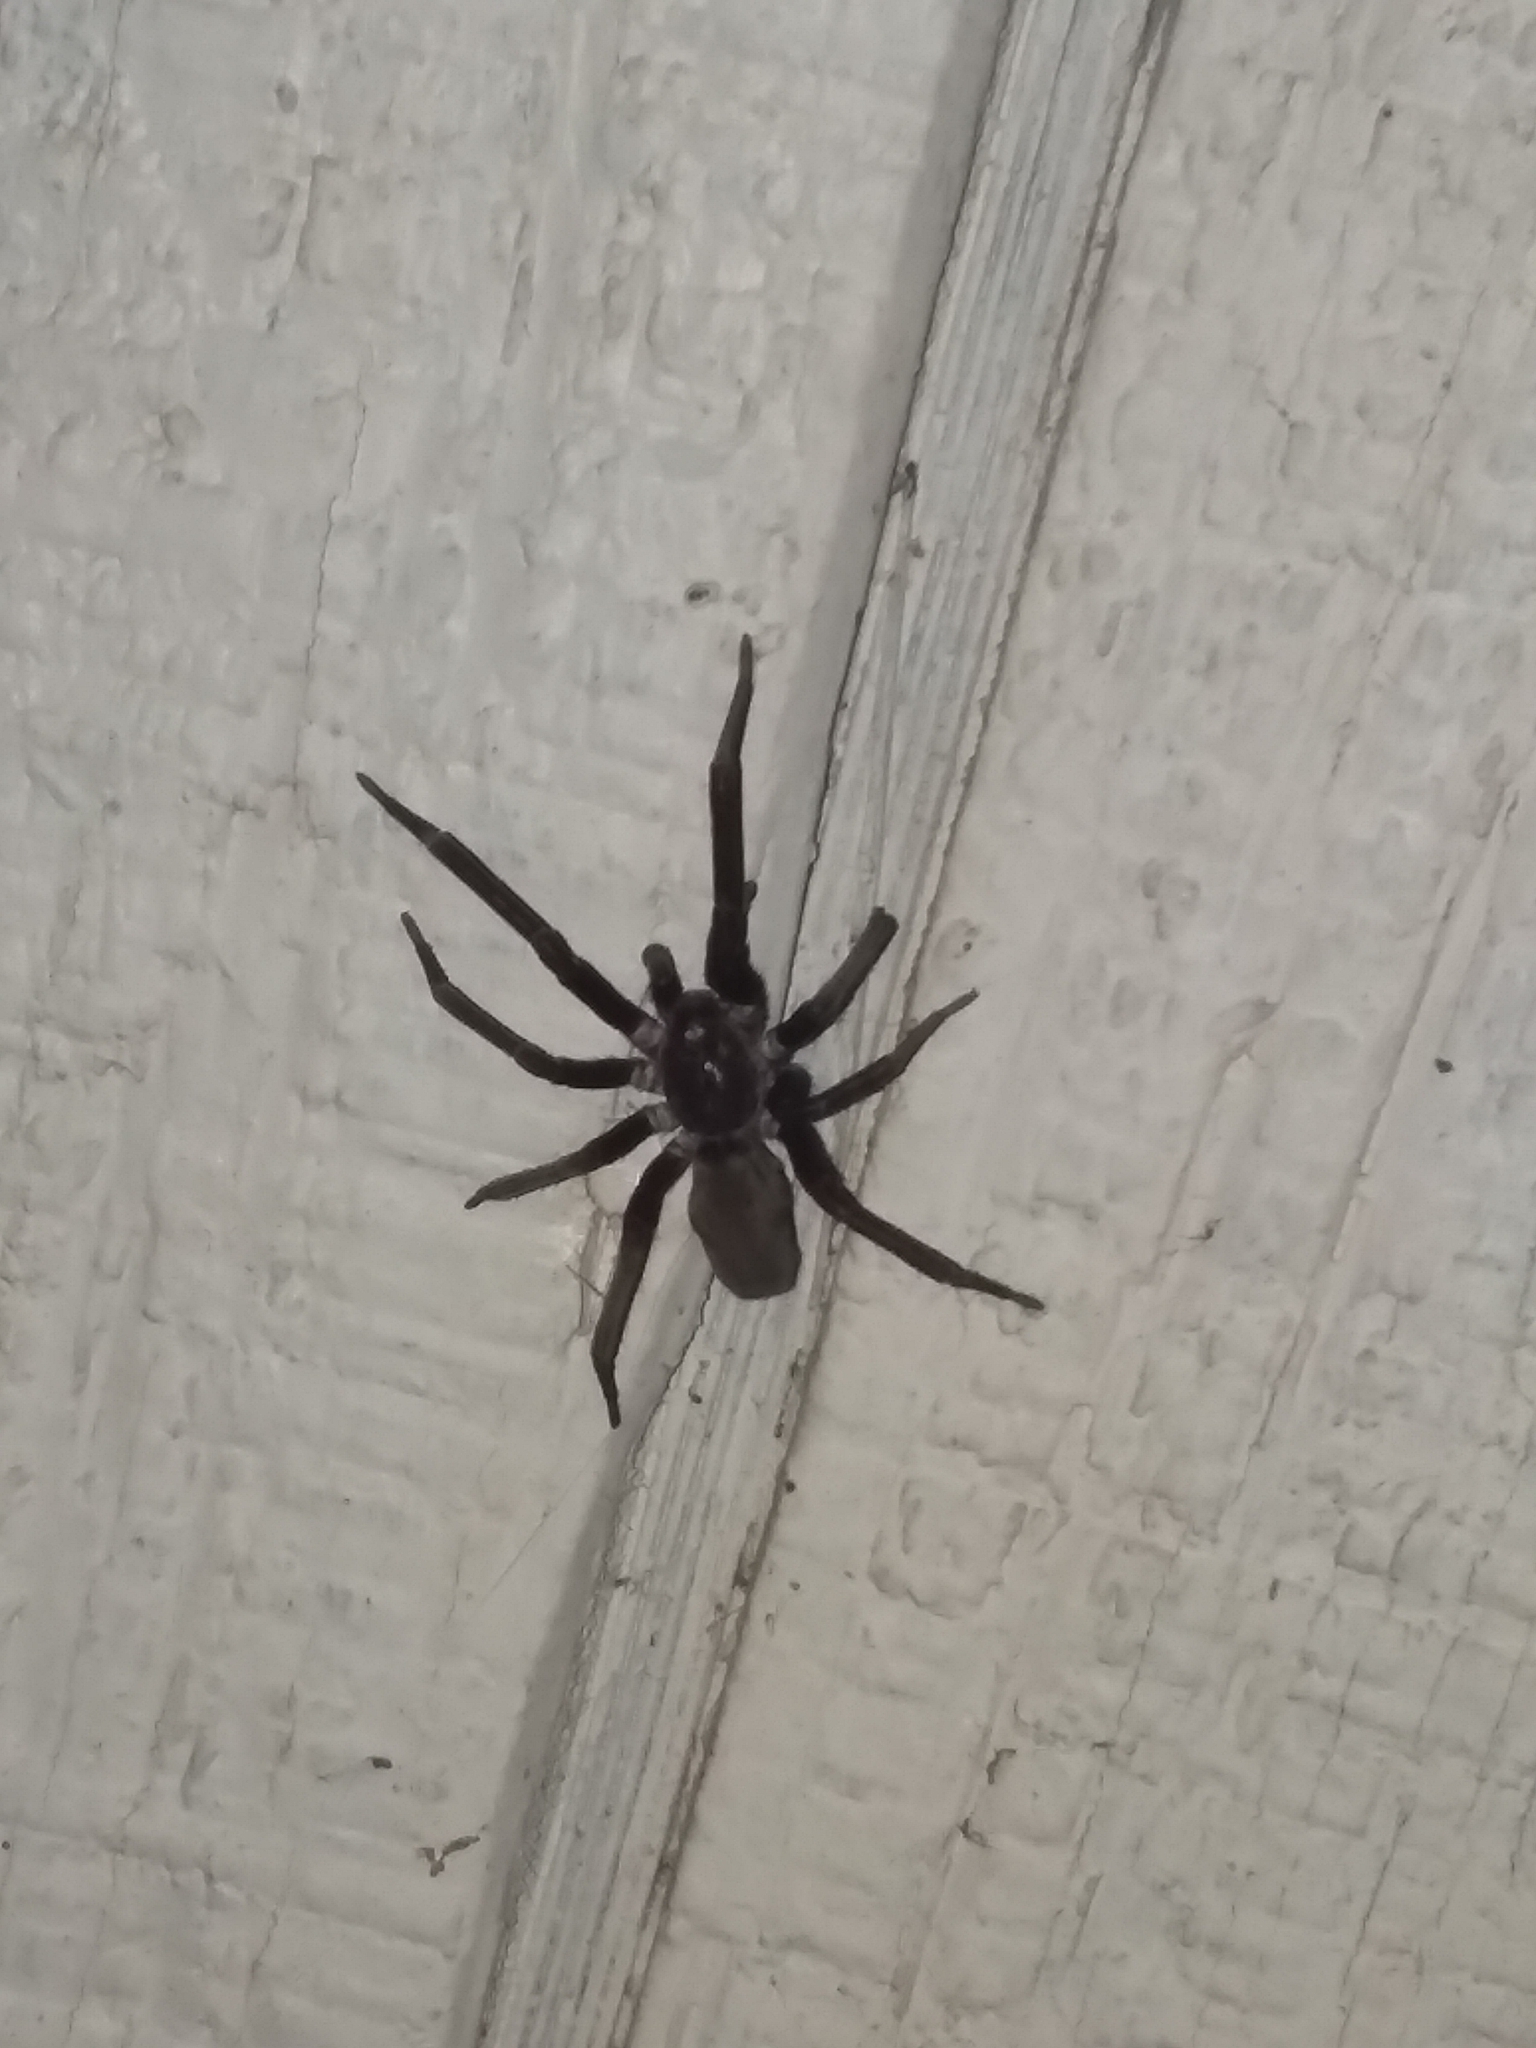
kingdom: Animalia
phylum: Arthropoda
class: Arachnida
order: Araneae
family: Filistatidae
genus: Kukulcania
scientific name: Kukulcania hibernalis
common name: Crevice weaver
